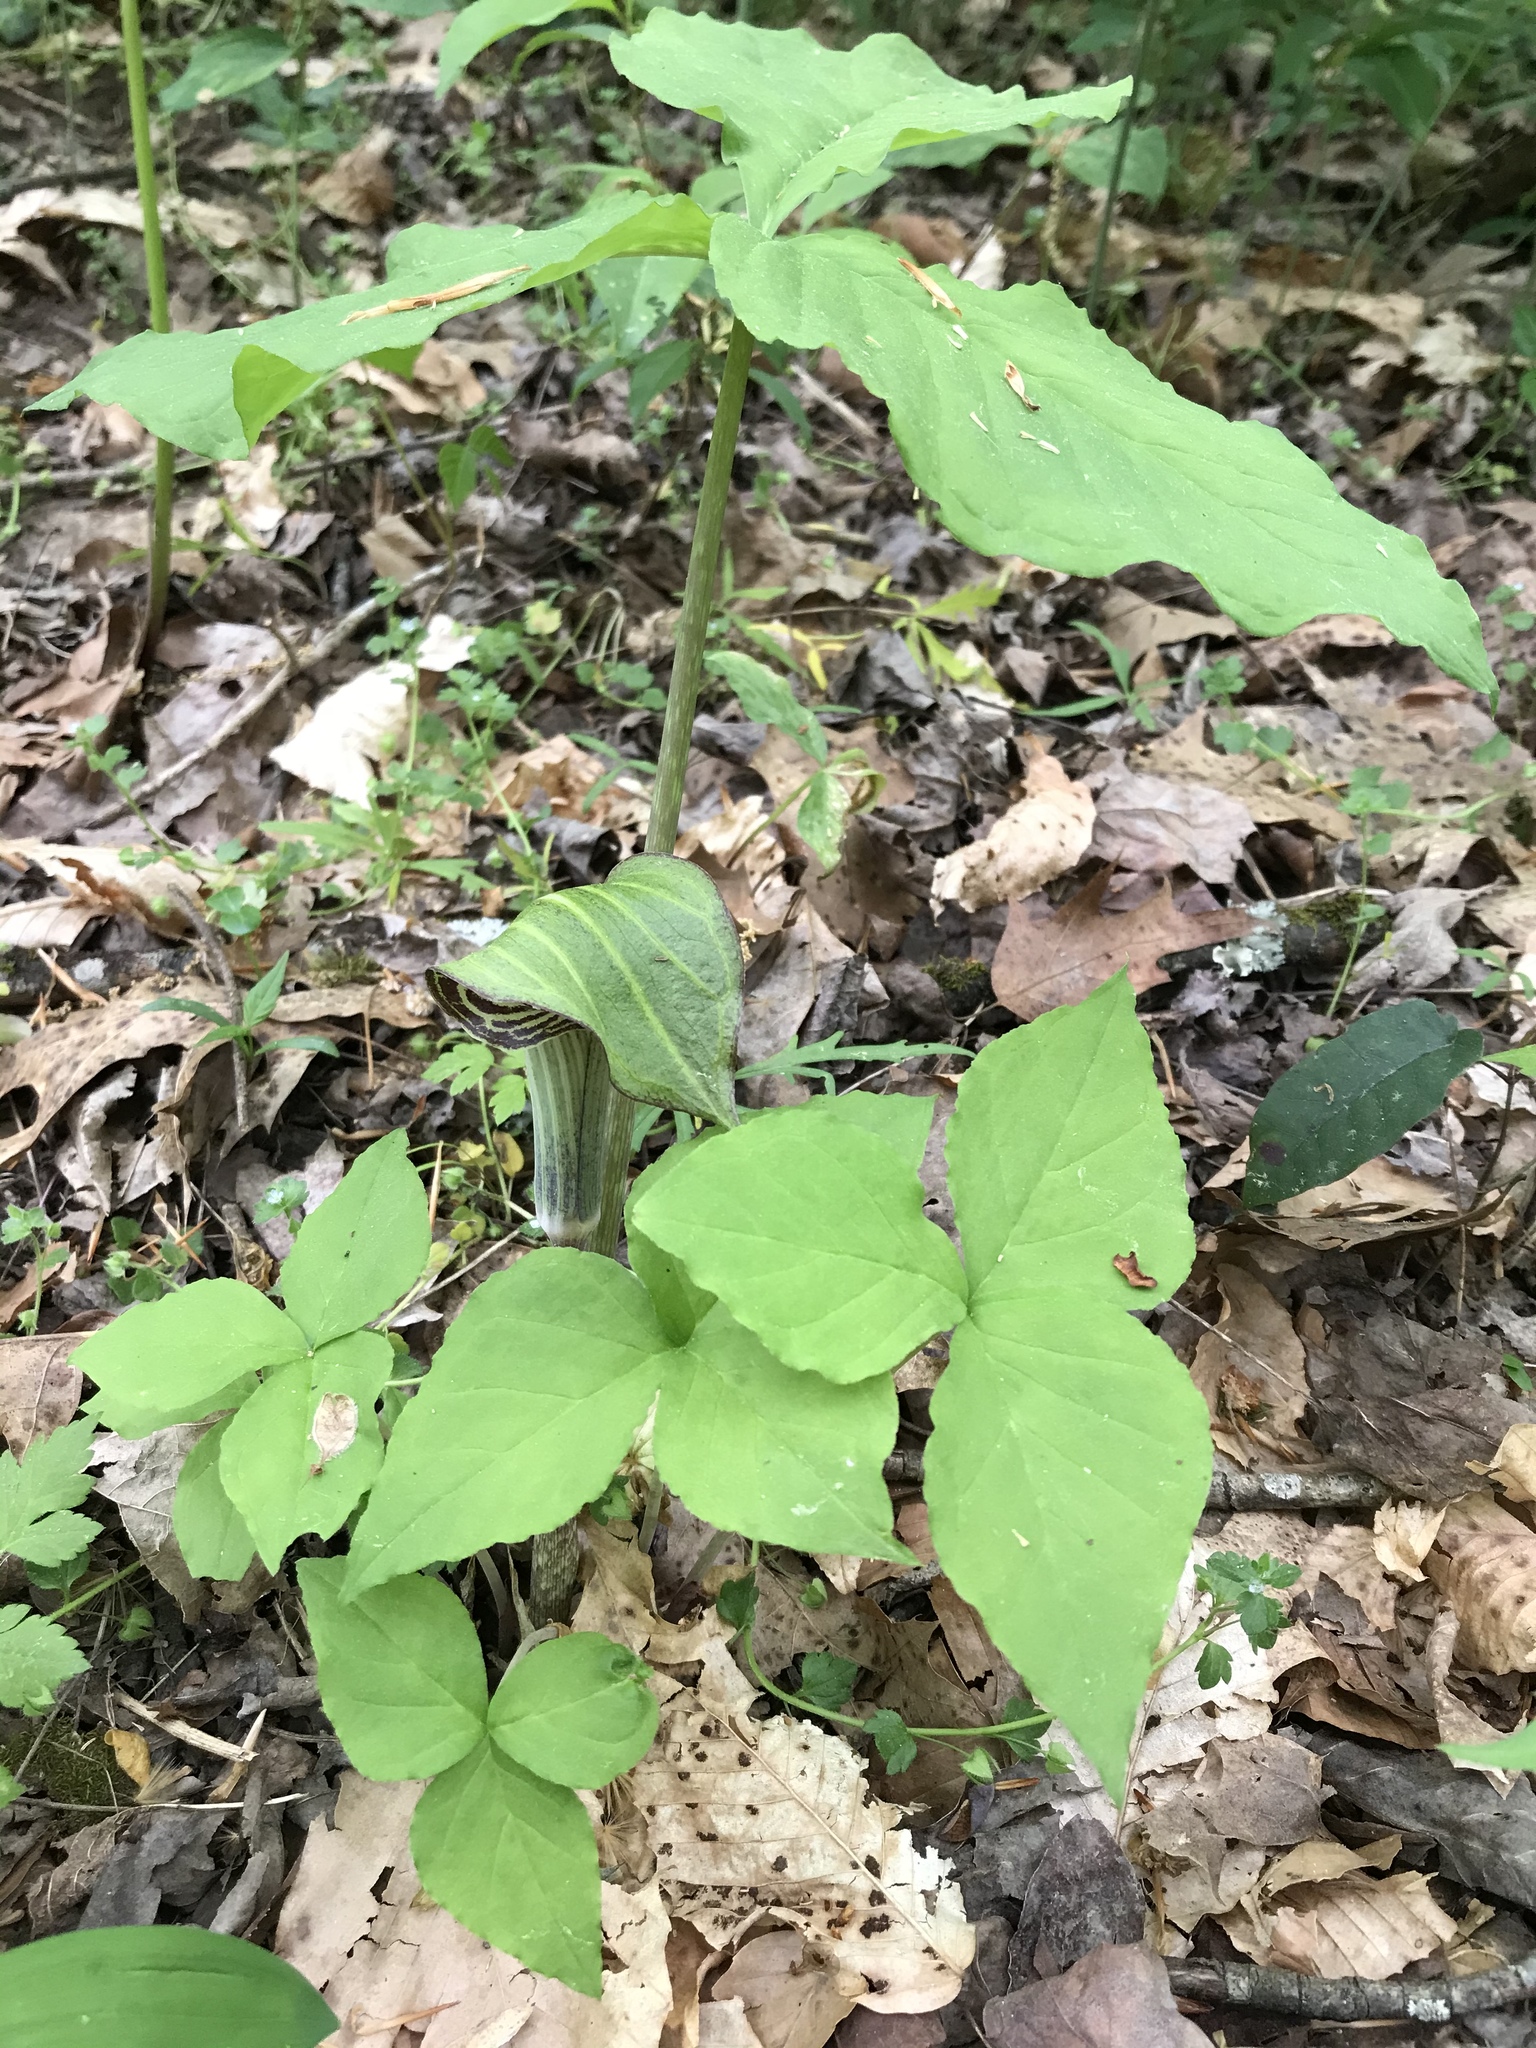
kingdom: Plantae
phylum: Tracheophyta
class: Liliopsida
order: Alismatales
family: Araceae
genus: Arisaema
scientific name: Arisaema triphyllum
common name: Jack-in-the-pulpit
